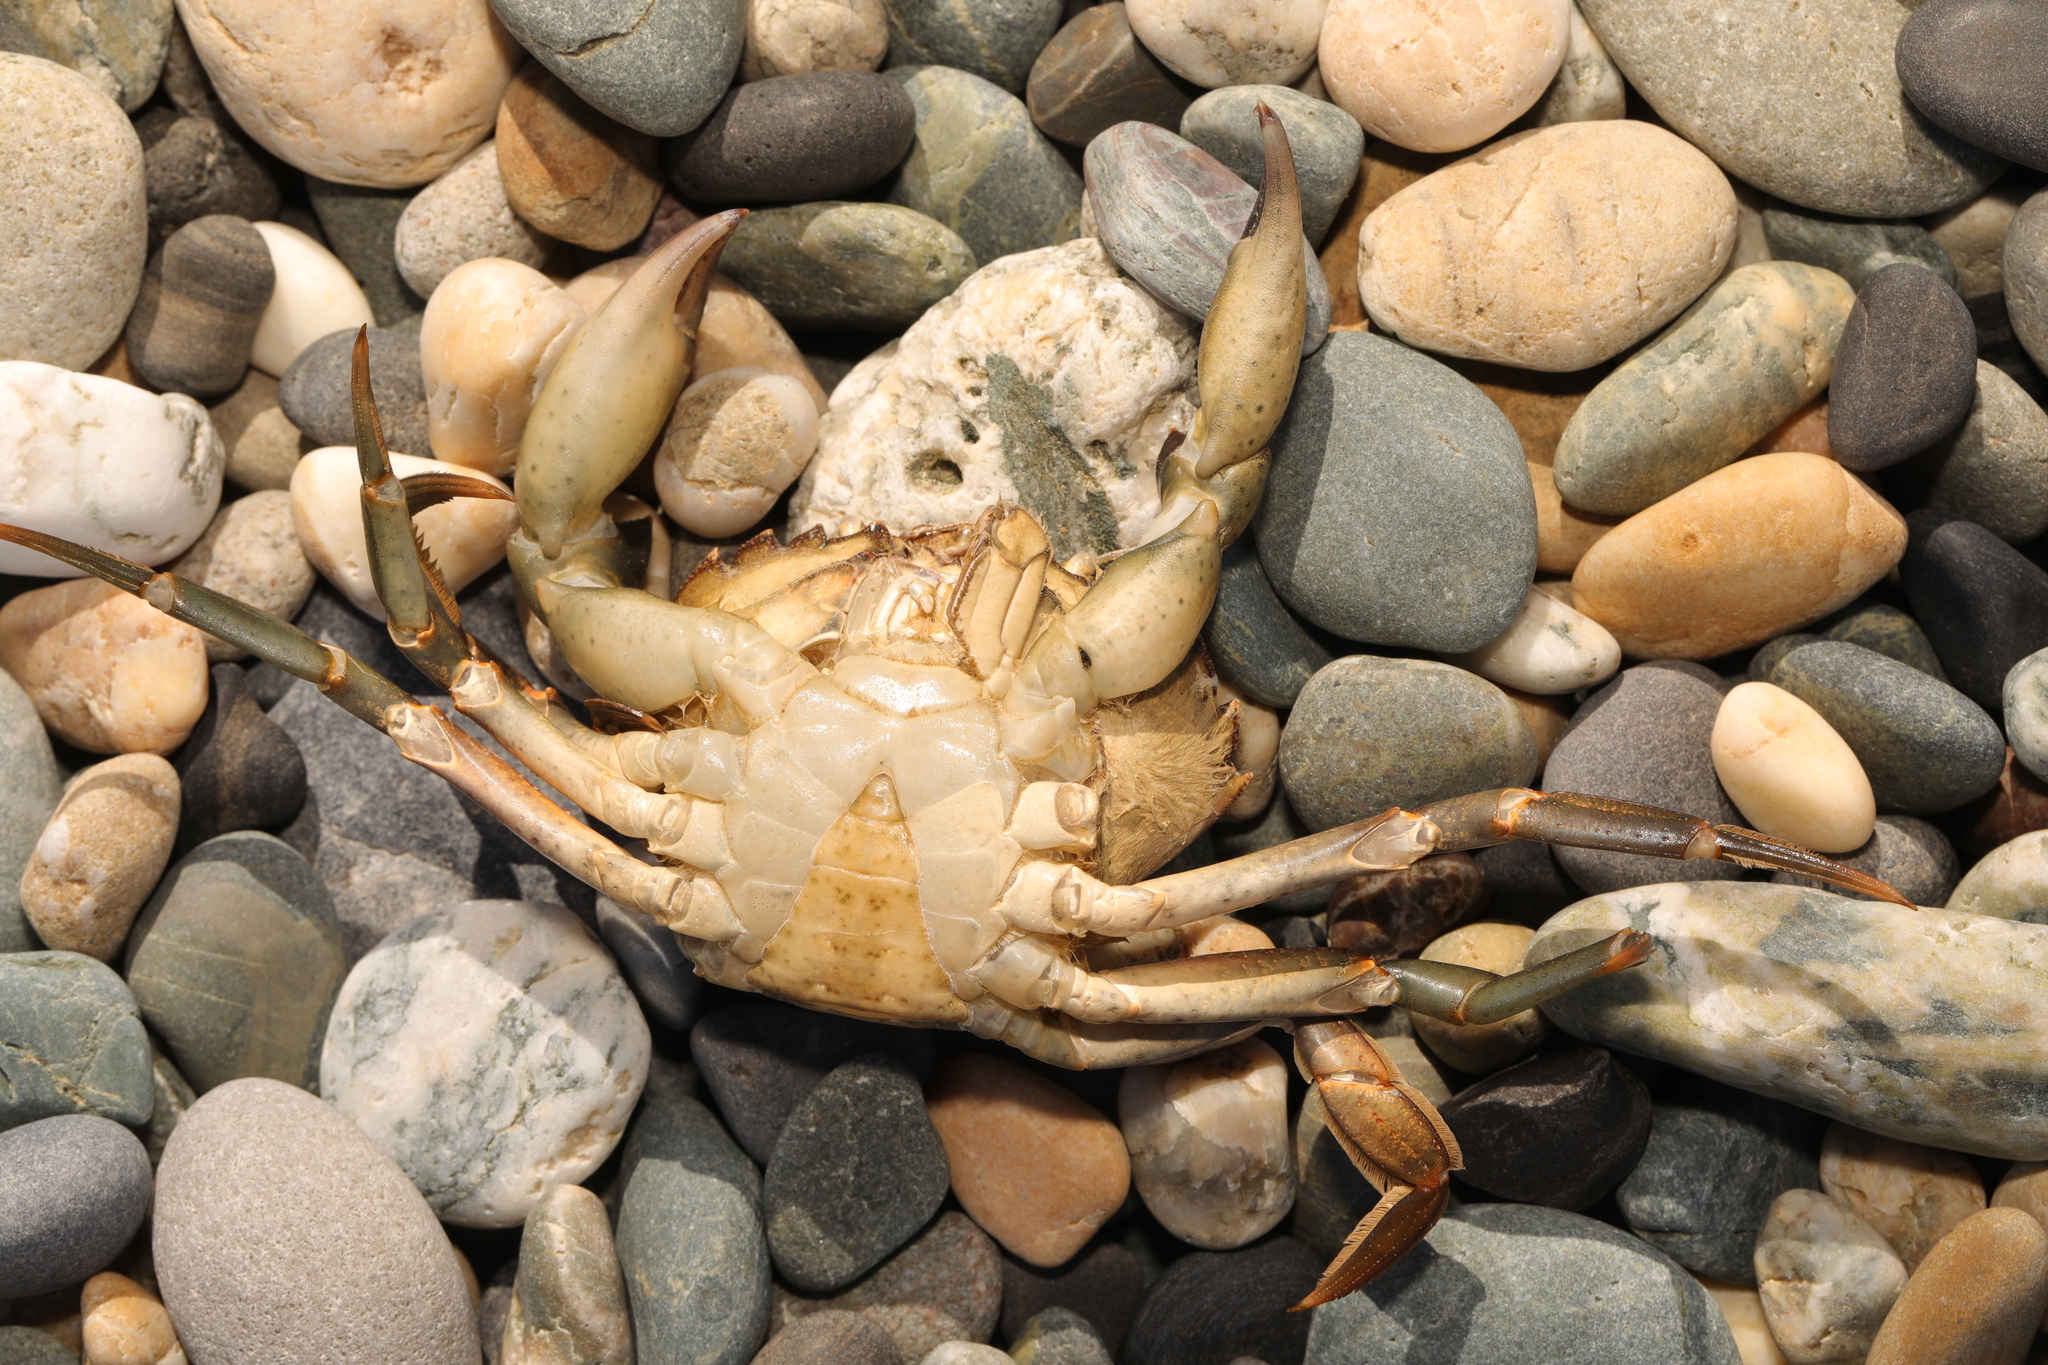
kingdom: Animalia
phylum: Arthropoda
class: Malacostraca
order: Decapoda
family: Carcinidae
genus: Carcinus
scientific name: Carcinus maenas
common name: European green crab
